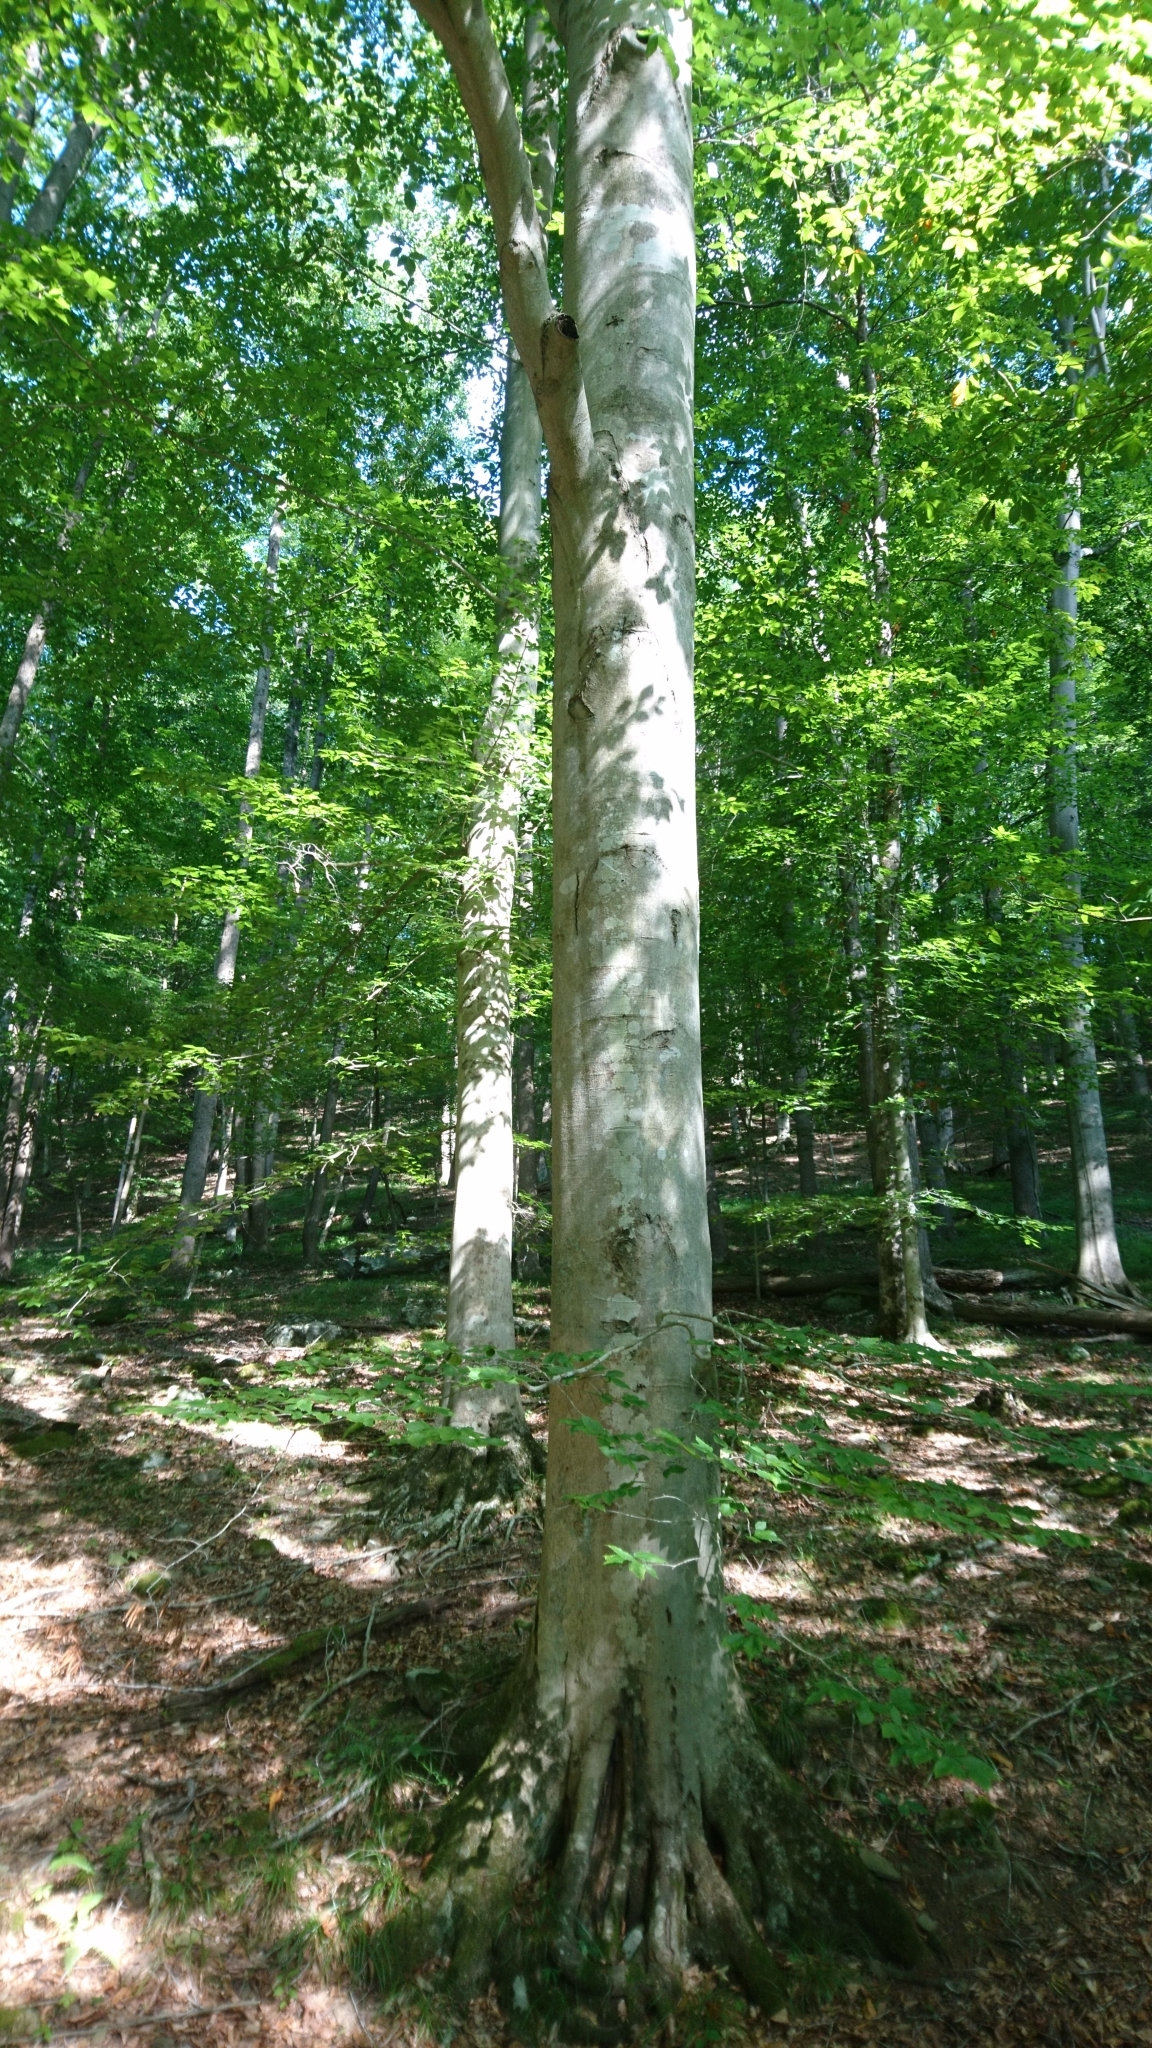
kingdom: Plantae
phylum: Tracheophyta
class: Magnoliopsida
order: Fagales
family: Fagaceae
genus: Fagus
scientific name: Fagus grandifolia
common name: American beech
